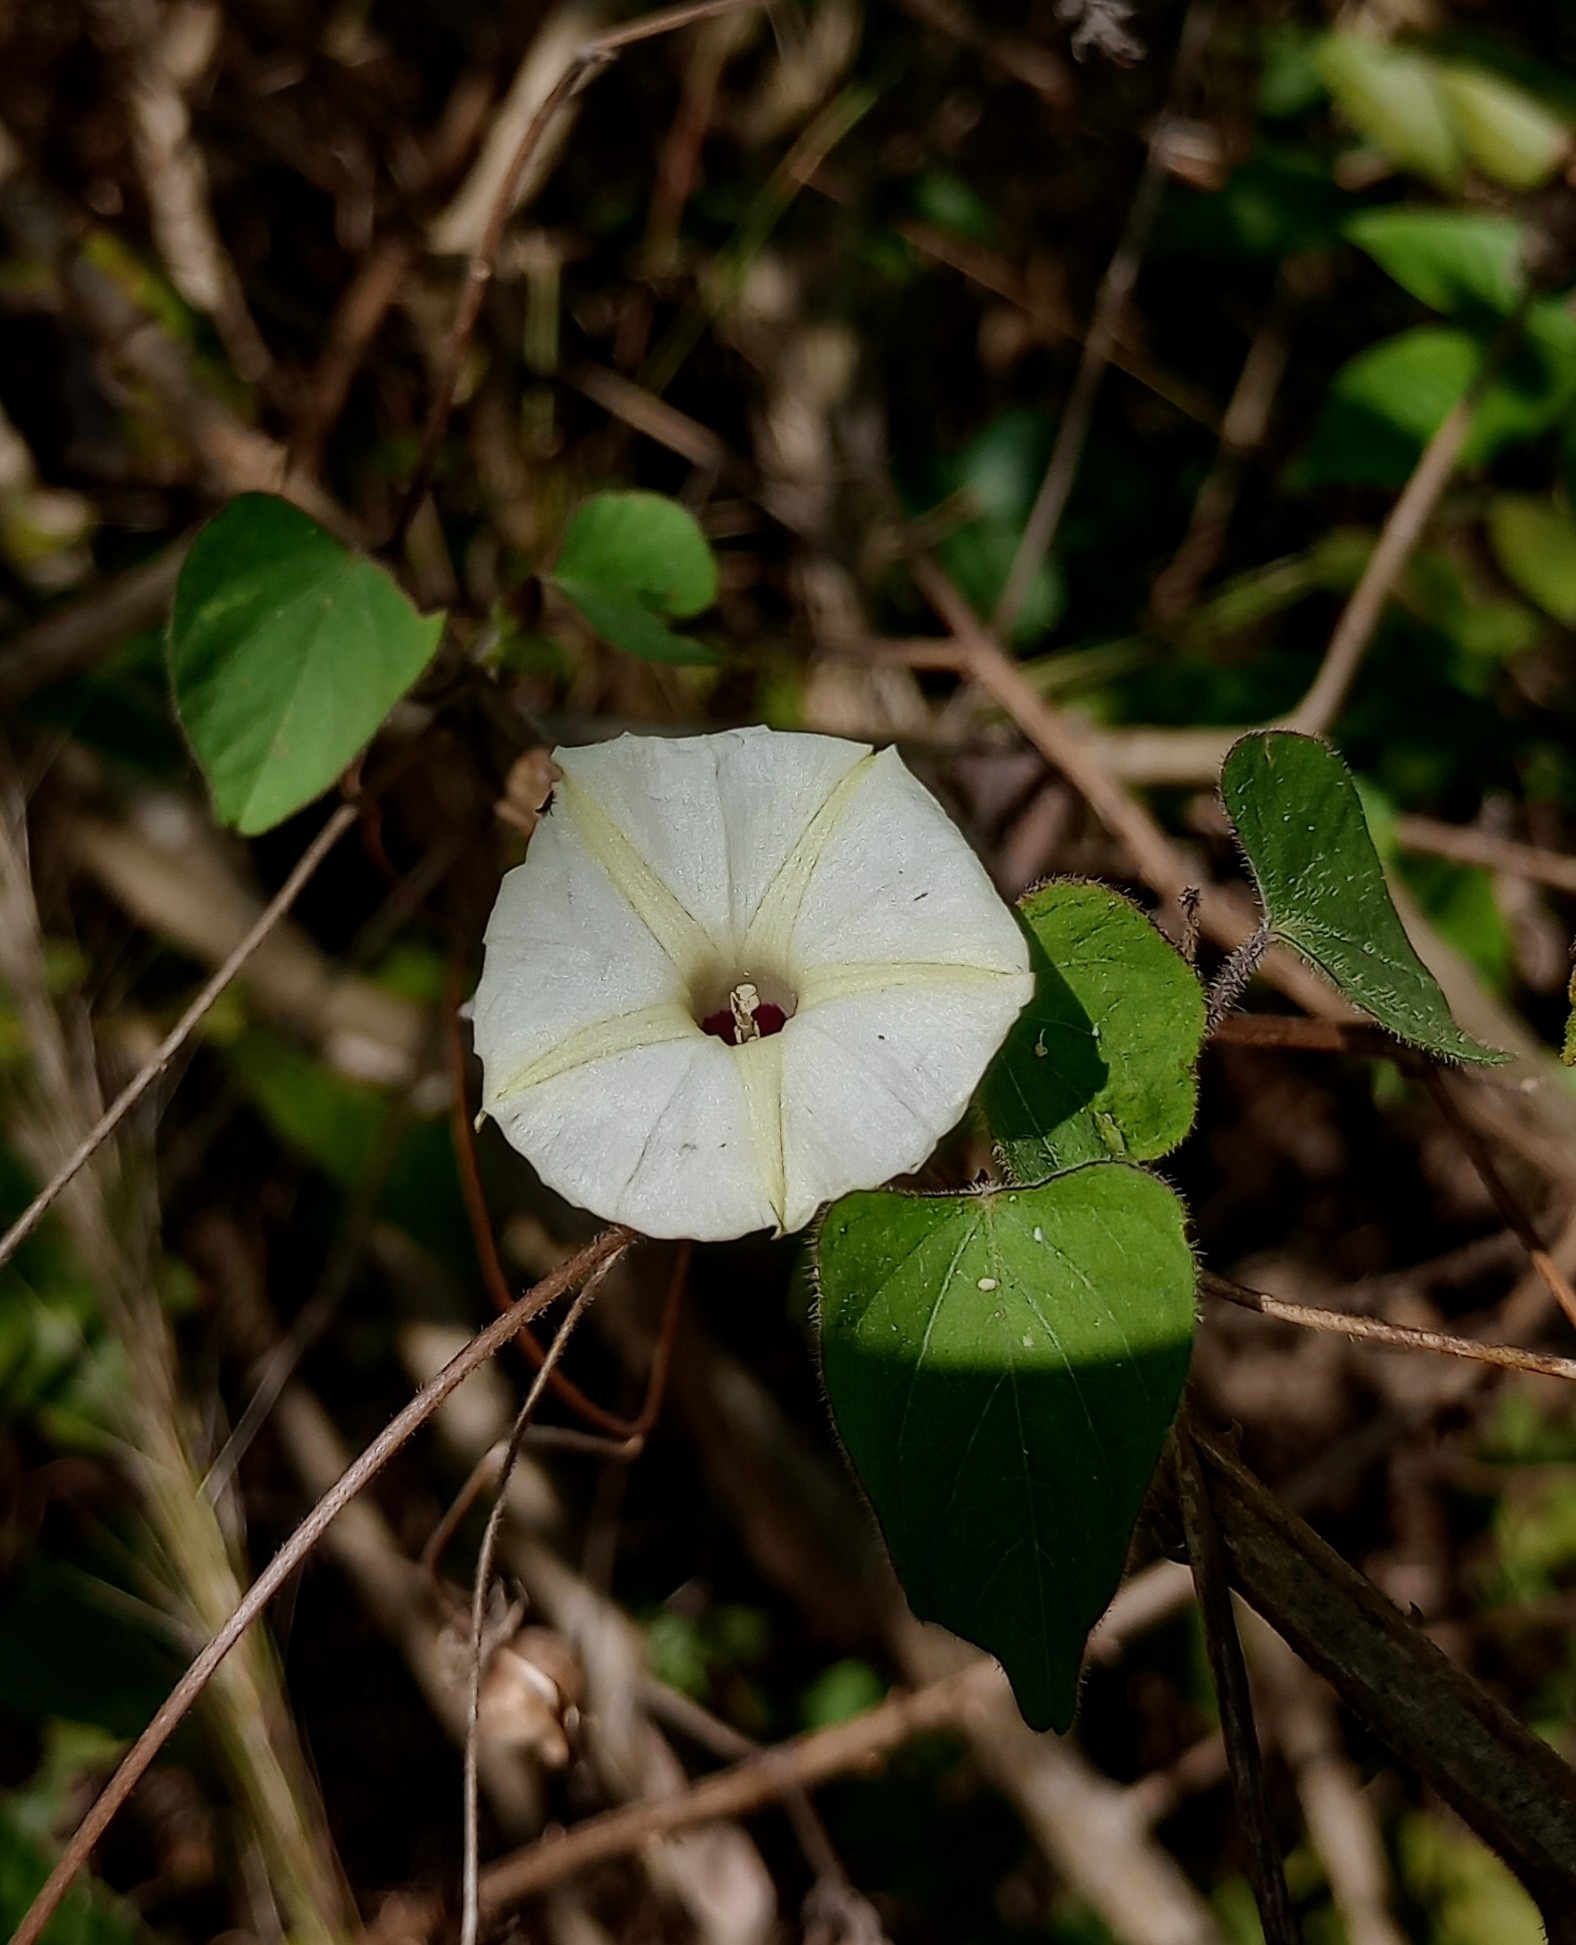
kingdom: Plantae
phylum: Tracheophyta
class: Magnoliopsida
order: Solanales
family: Convolvulaceae
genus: Ipomoea
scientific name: Ipomoea obscura
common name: Obscure morning-glory
